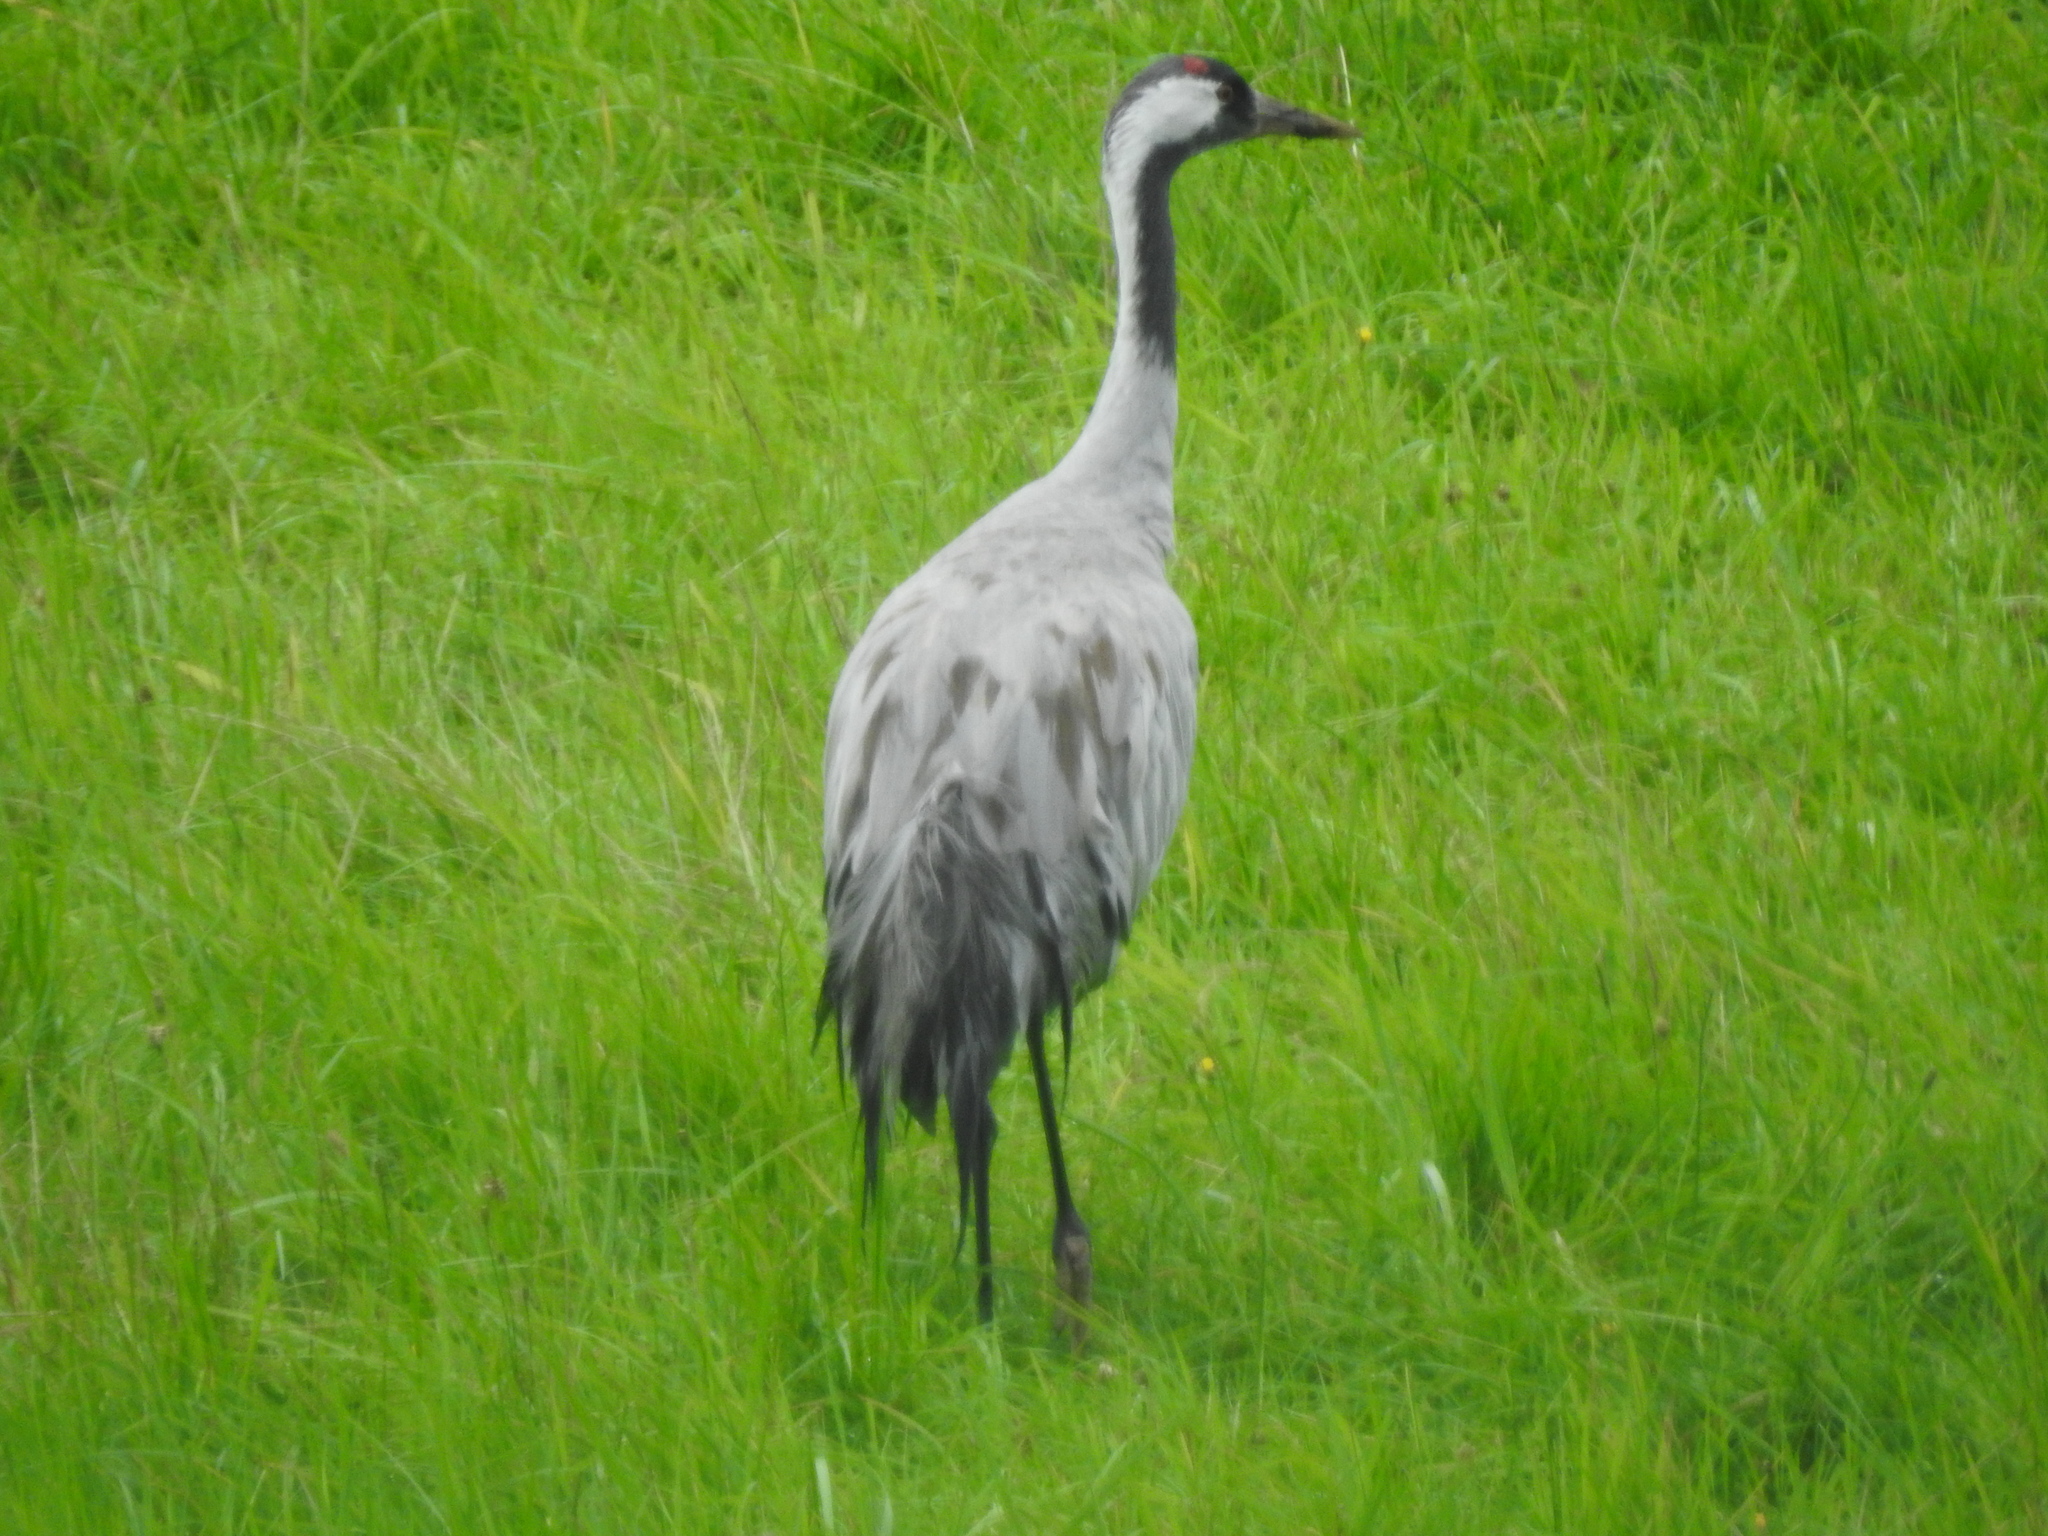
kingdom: Animalia
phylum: Chordata
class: Aves
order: Gruiformes
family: Gruidae
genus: Grus
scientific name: Grus grus
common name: Common crane
